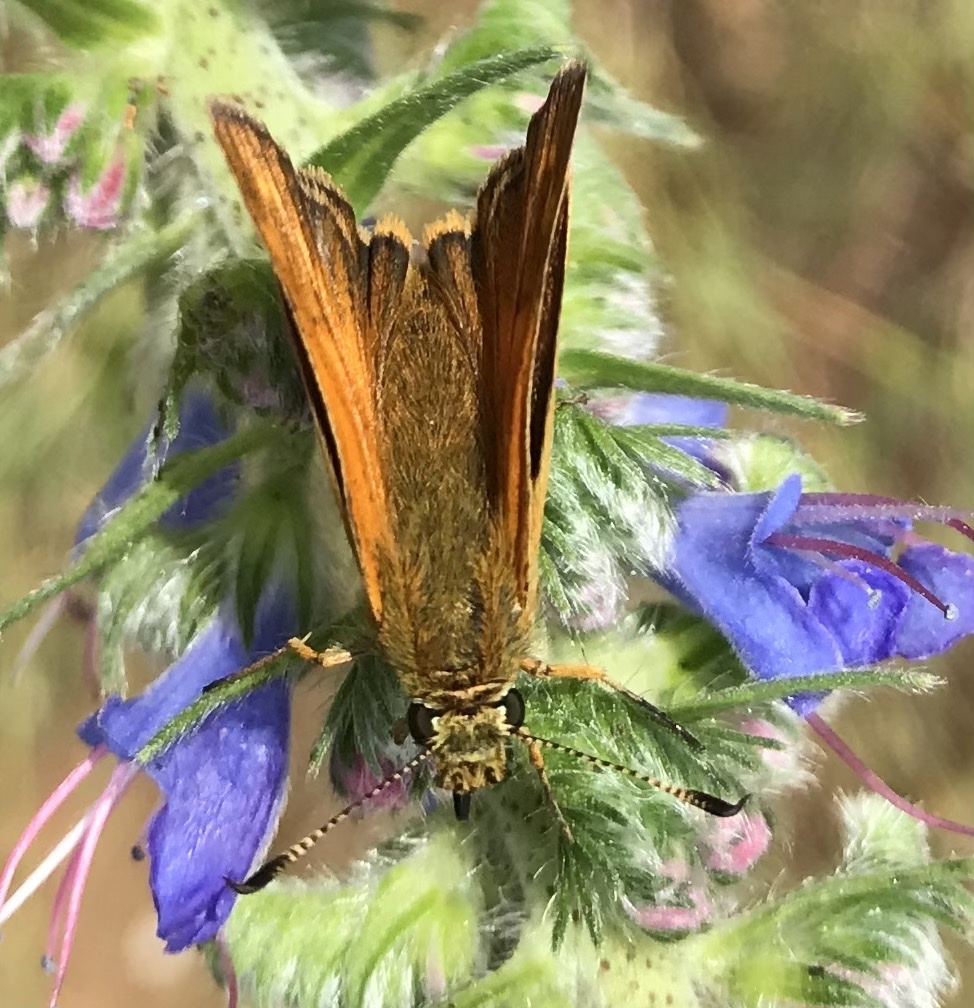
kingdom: Animalia
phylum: Arthropoda
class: Insecta
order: Lepidoptera
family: Hesperiidae
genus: Ochlodes
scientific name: Ochlodes venata
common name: Large skipper
